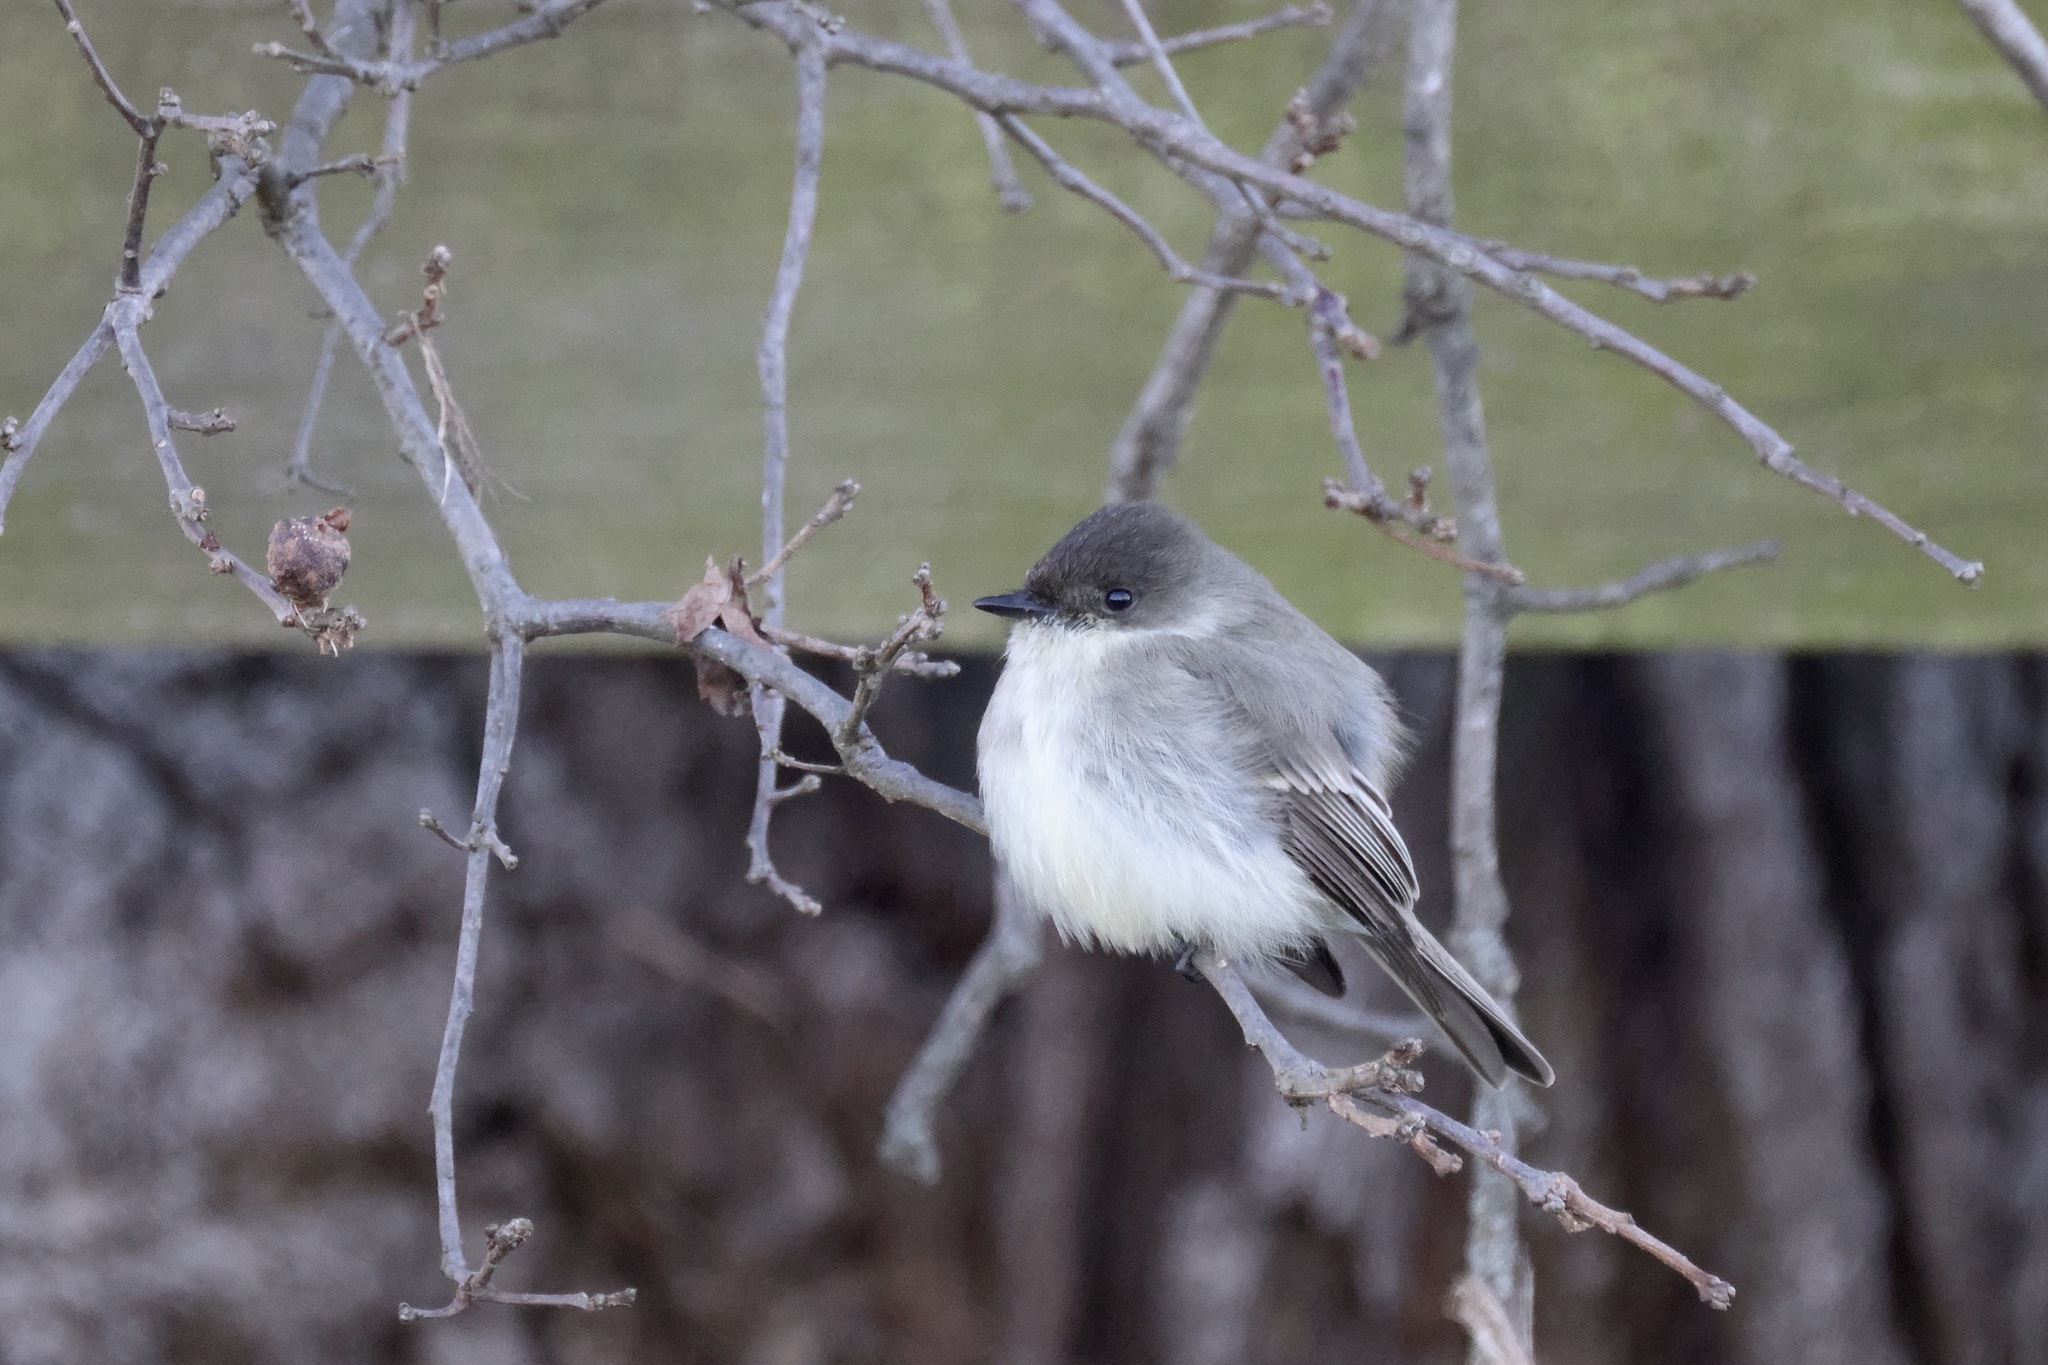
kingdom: Animalia
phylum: Chordata
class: Aves
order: Passeriformes
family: Tyrannidae
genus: Sayornis
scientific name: Sayornis phoebe
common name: Eastern phoebe
